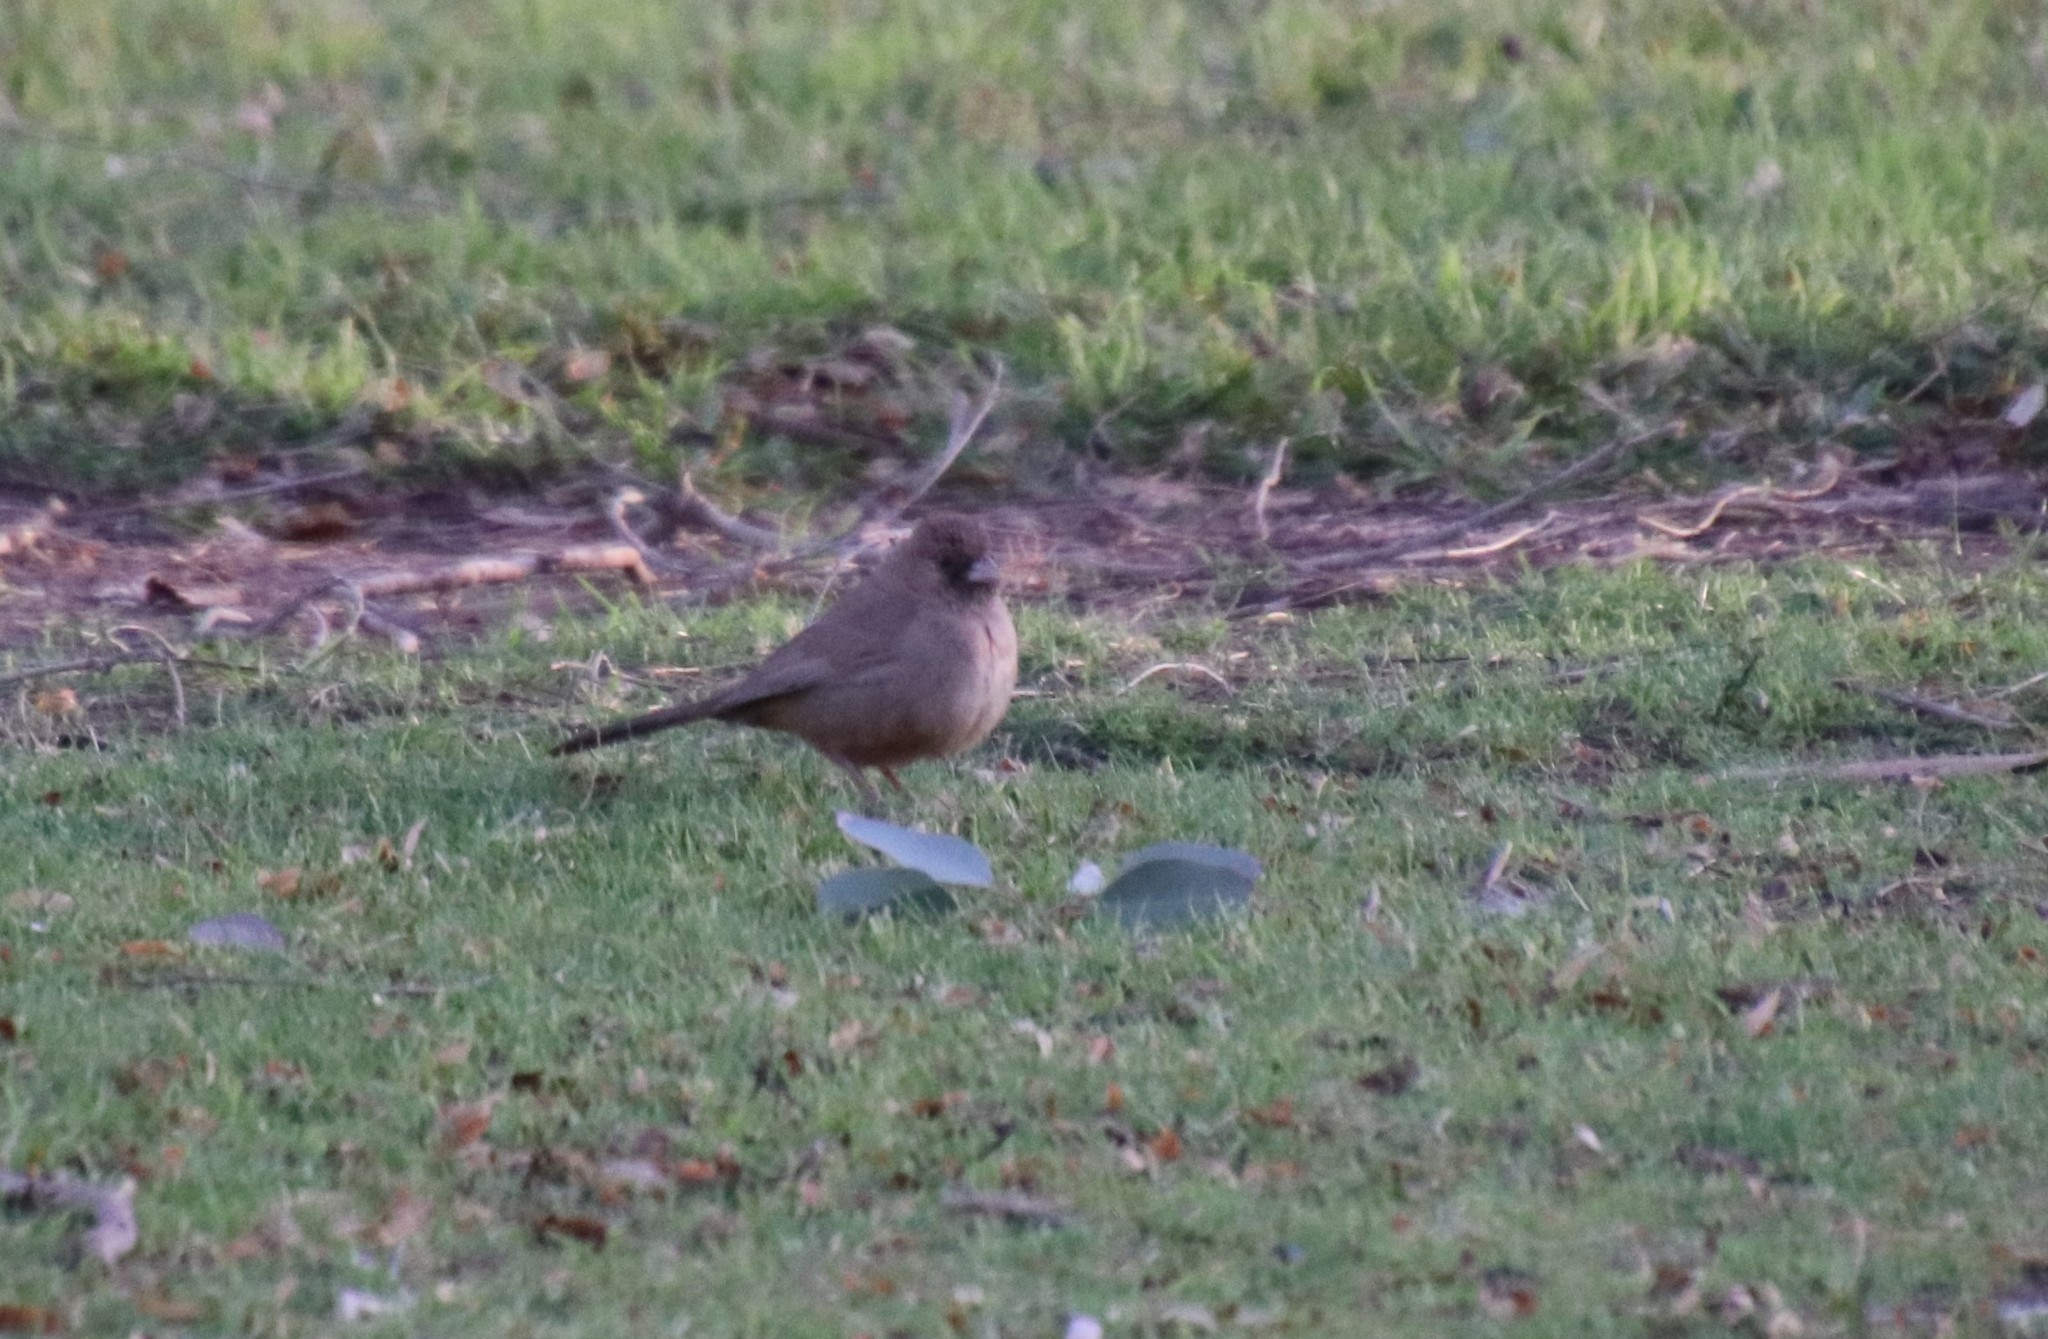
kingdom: Animalia
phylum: Chordata
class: Aves
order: Passeriformes
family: Passerellidae
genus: Melozone
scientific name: Melozone aberti
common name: Abert's towhee
